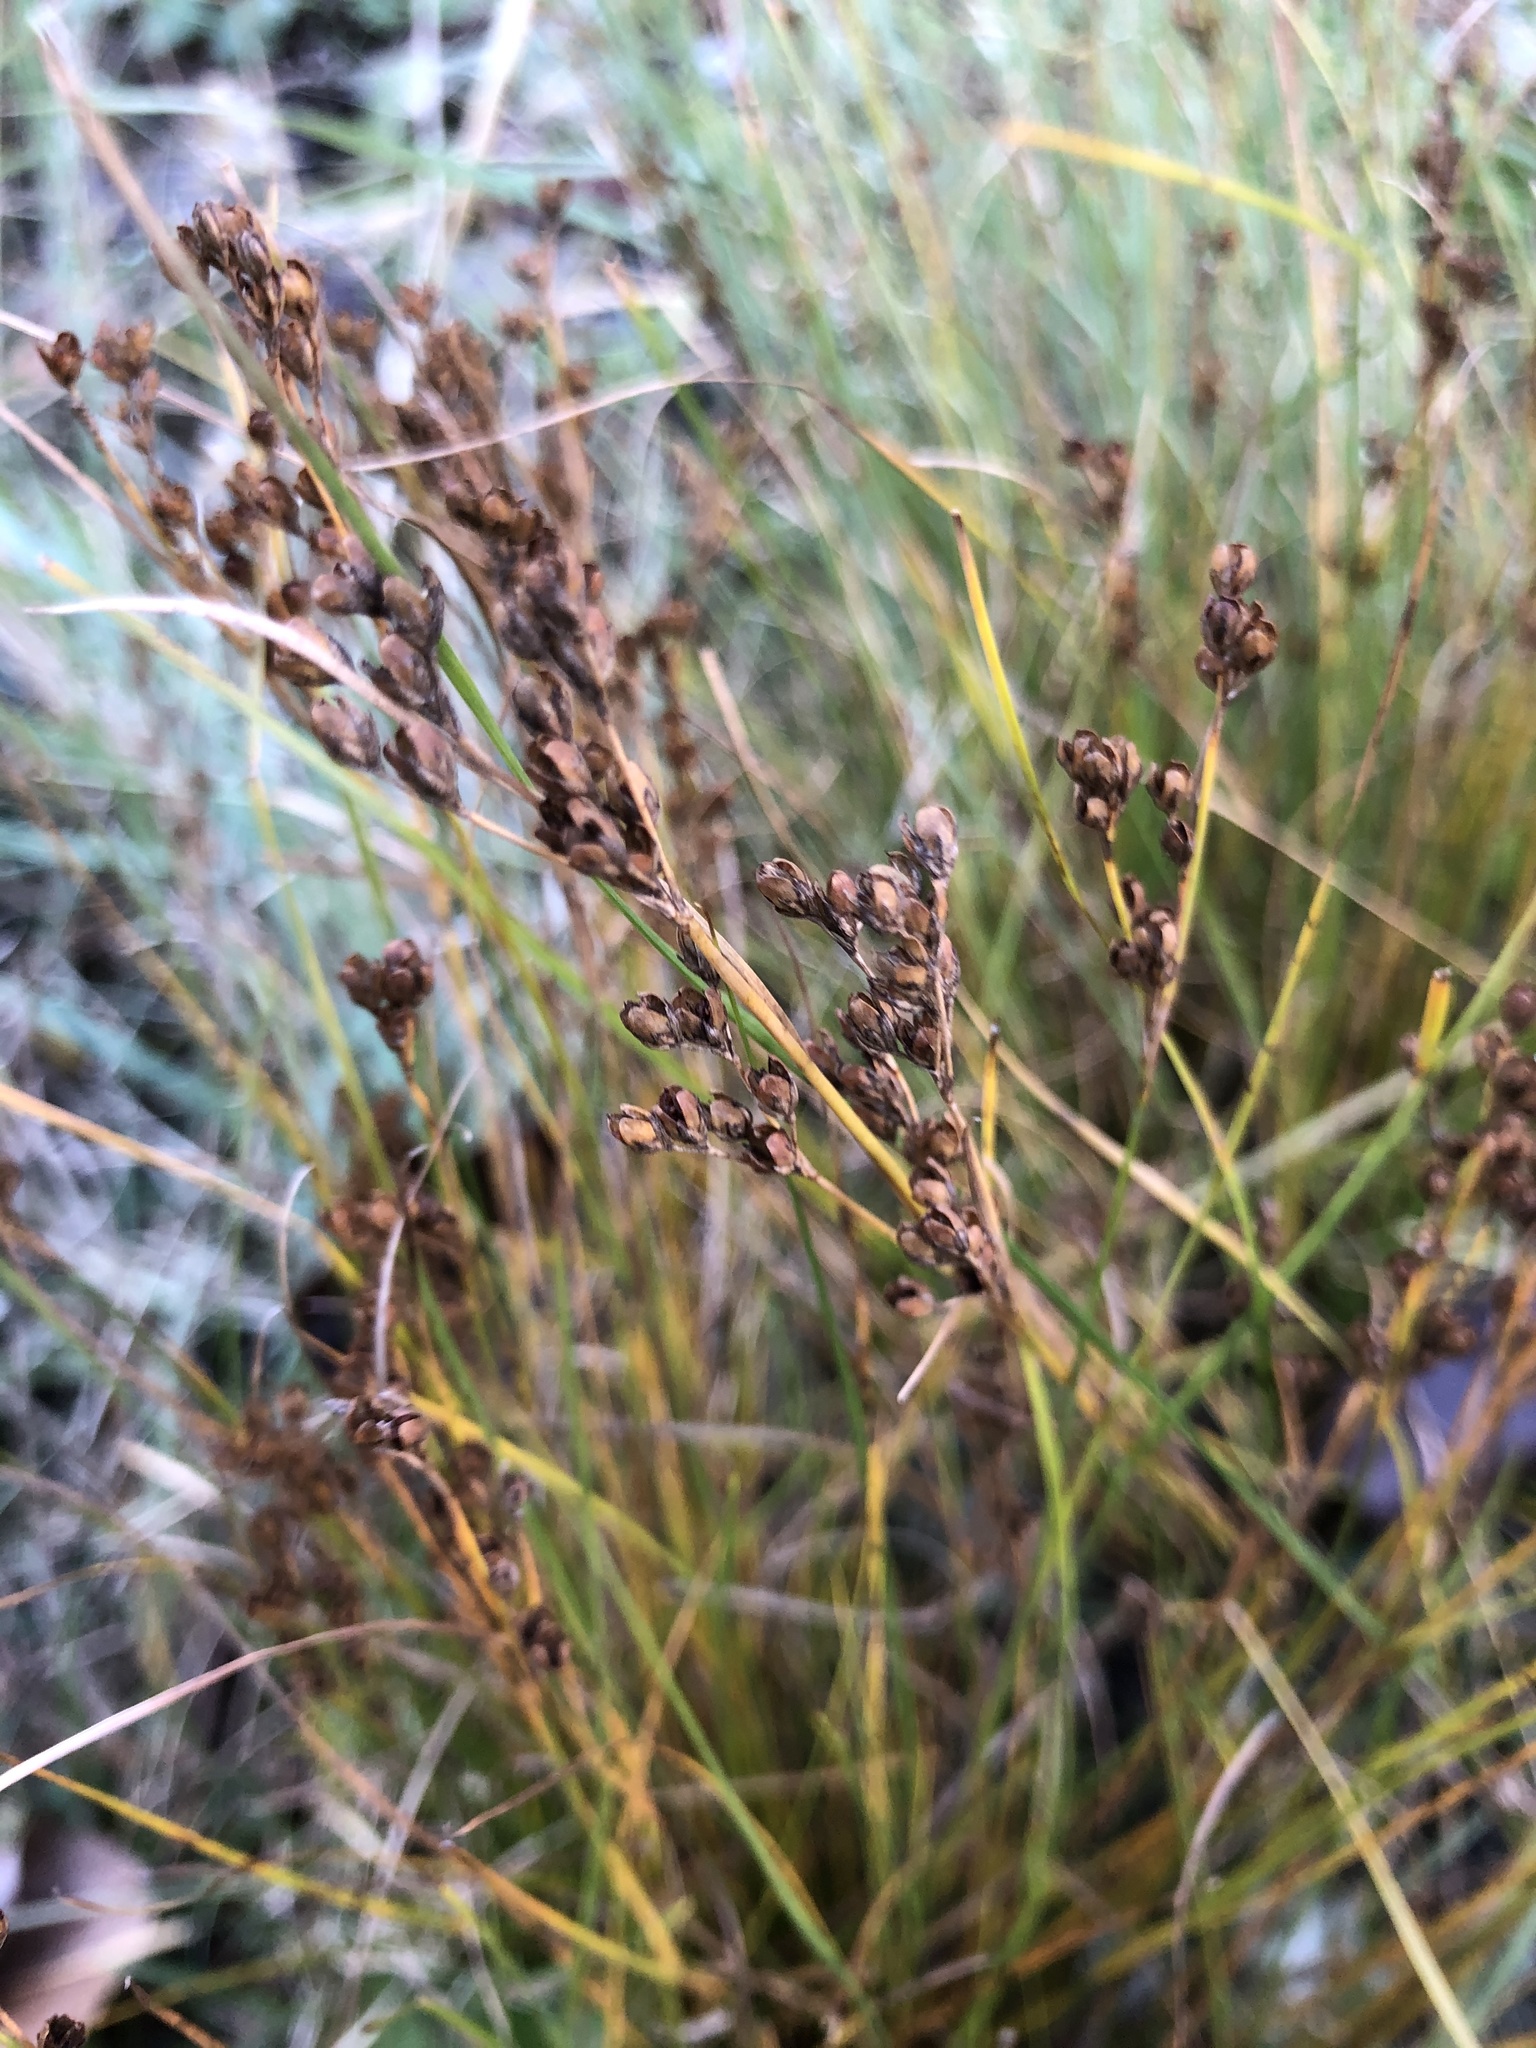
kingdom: Plantae
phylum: Tracheophyta
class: Liliopsida
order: Poales
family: Juncaceae
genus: Juncus
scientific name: Juncus compressus
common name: Round-fruited rush
